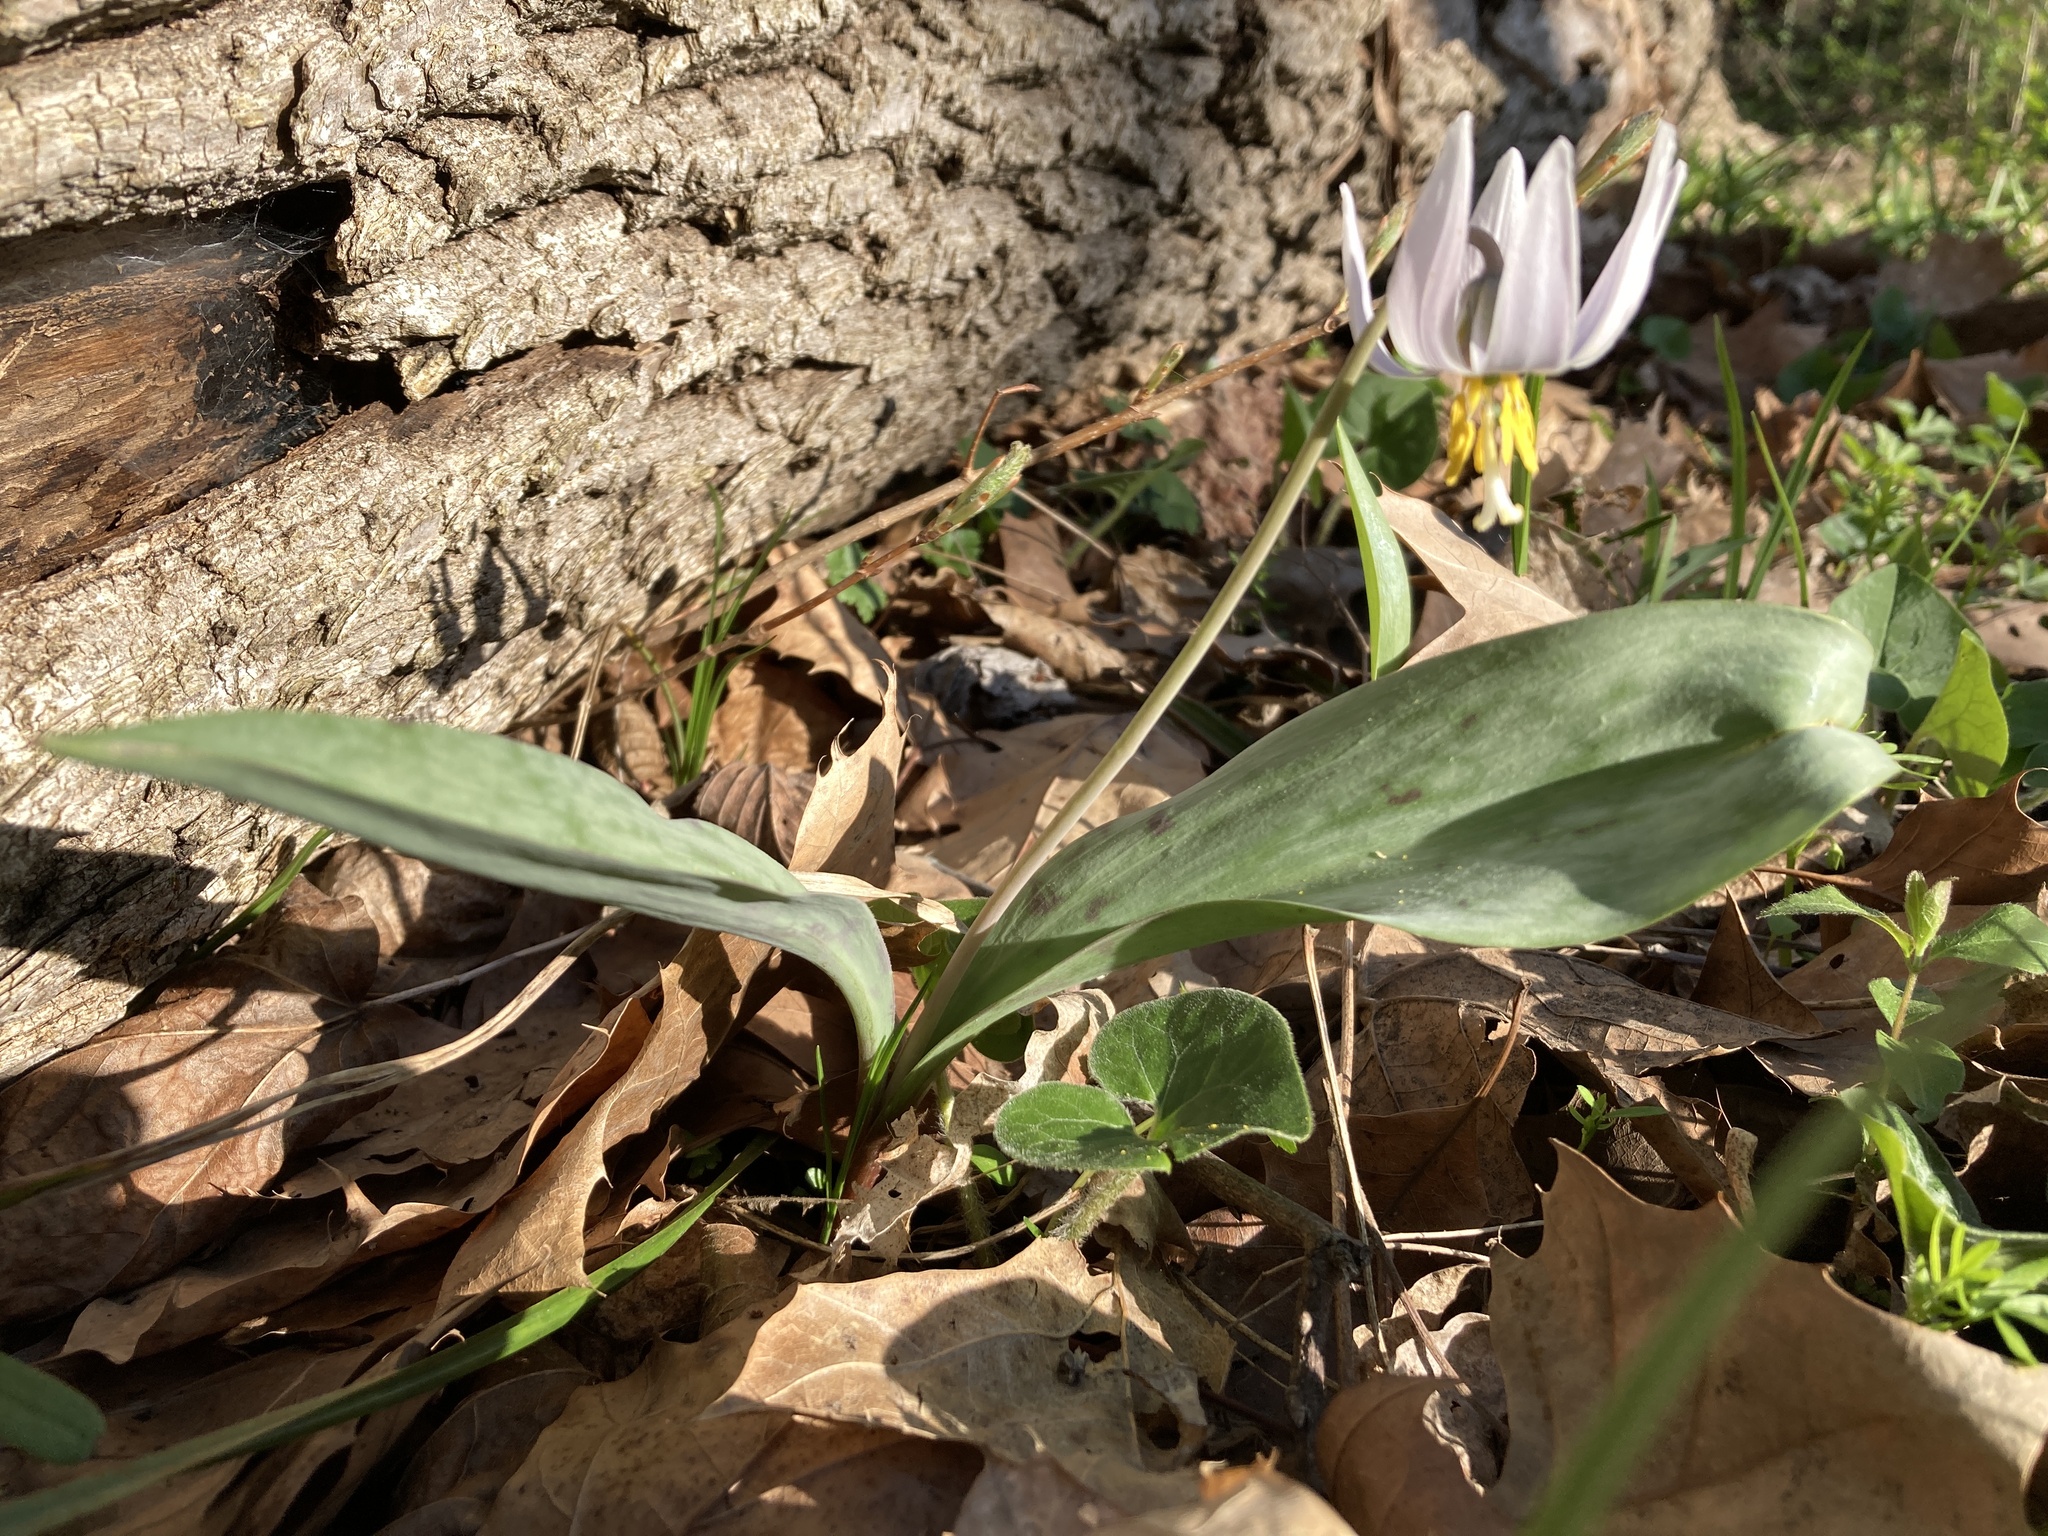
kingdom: Plantae
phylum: Tracheophyta
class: Liliopsida
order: Liliales
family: Liliaceae
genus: Erythronium
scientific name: Erythronium albidum
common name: White trout-lily
